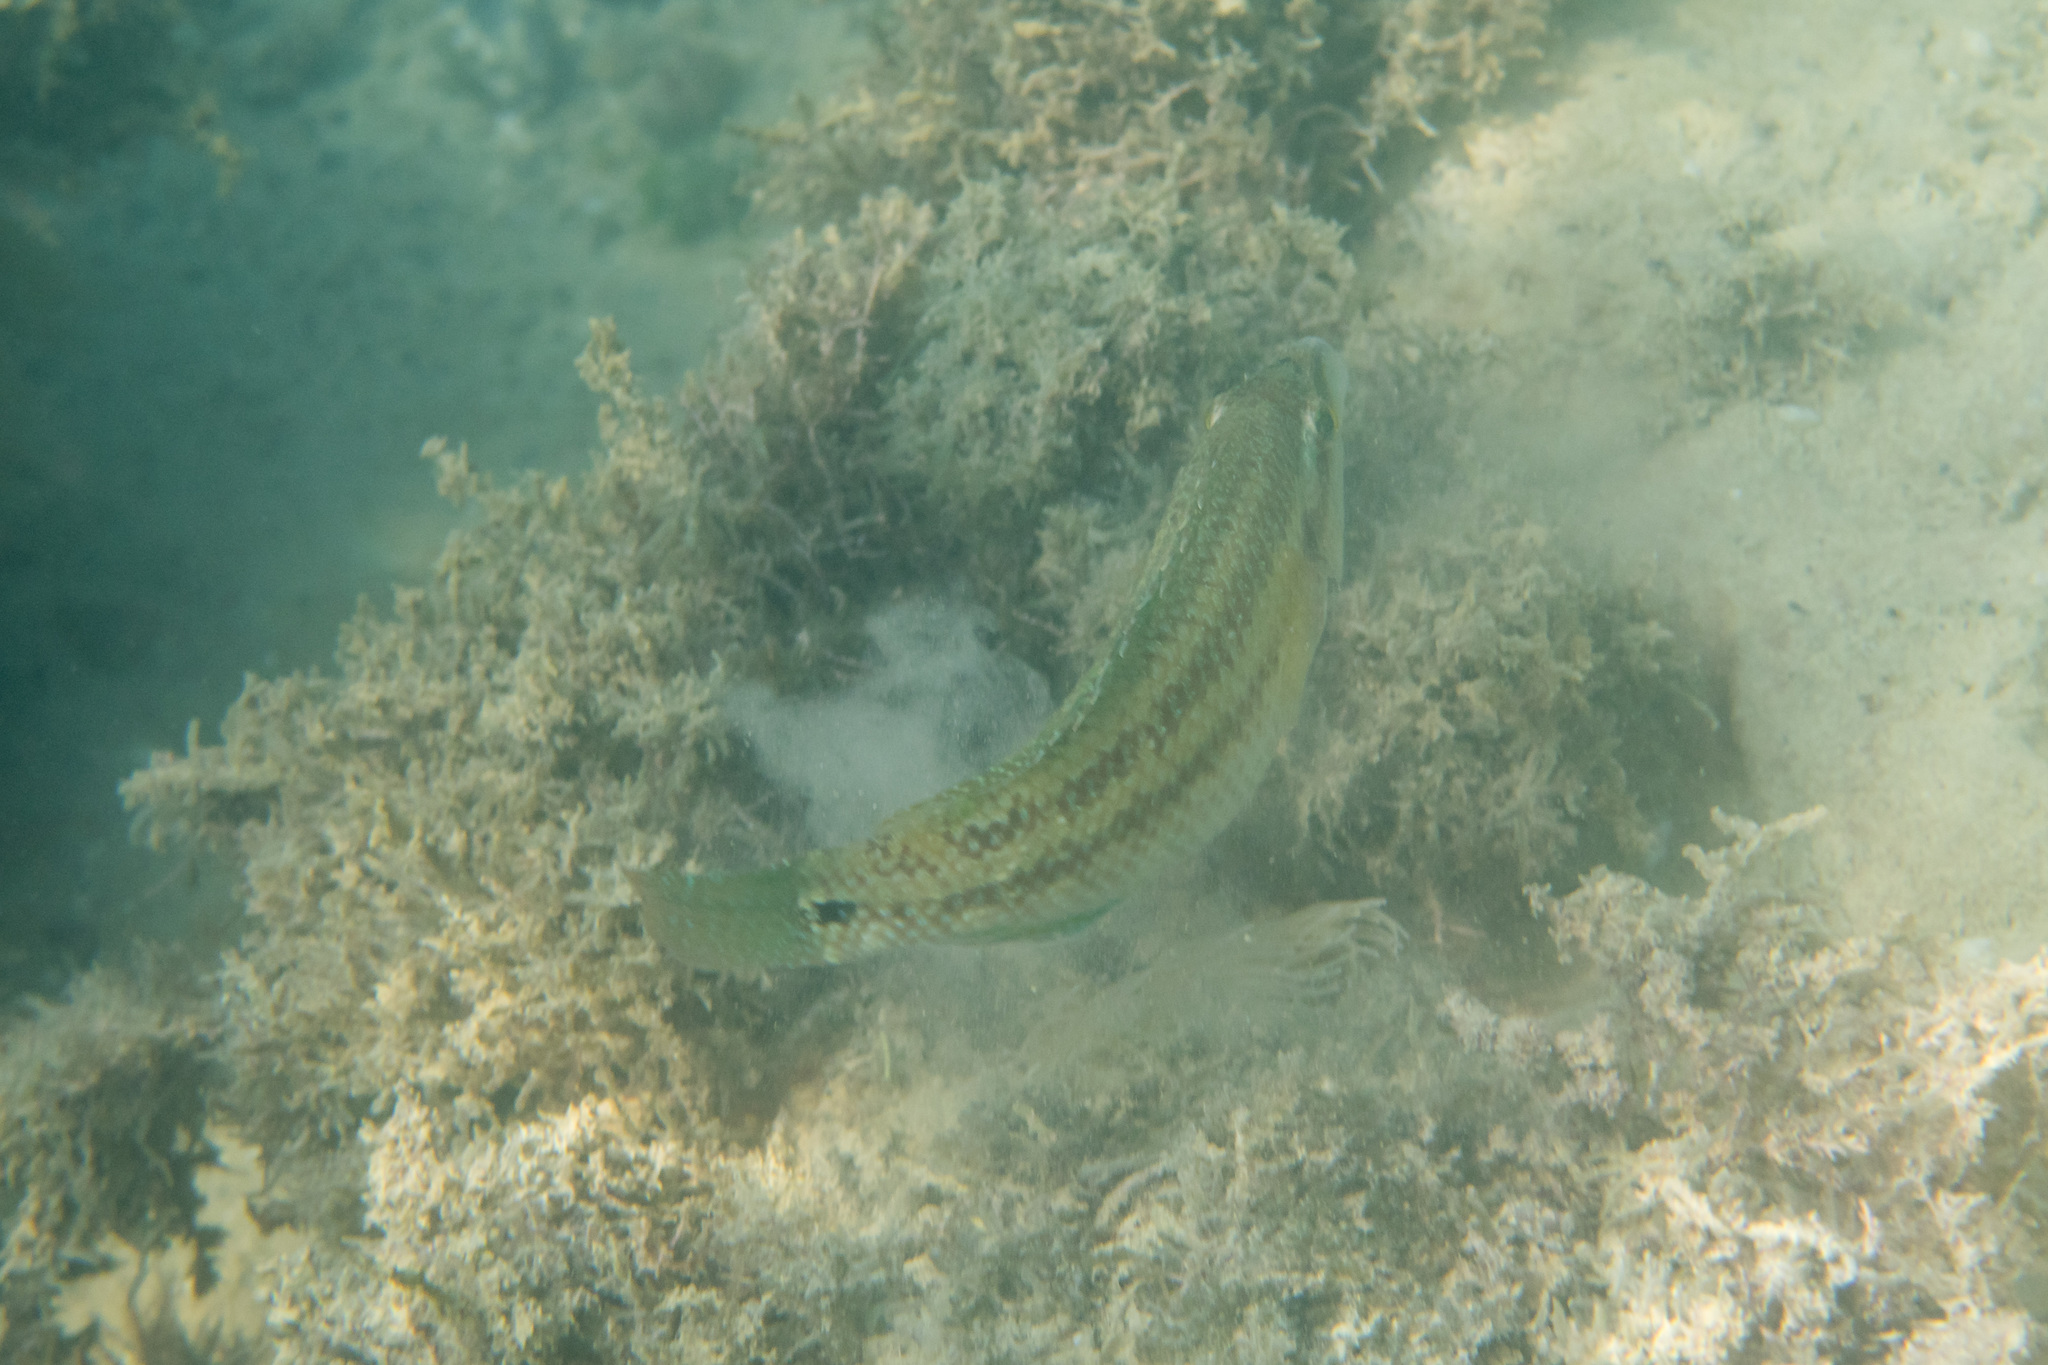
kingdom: Animalia
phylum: Chordata
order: Perciformes
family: Labridae
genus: Symphodus
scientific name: Symphodus tinca
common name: Peacock wrasse
